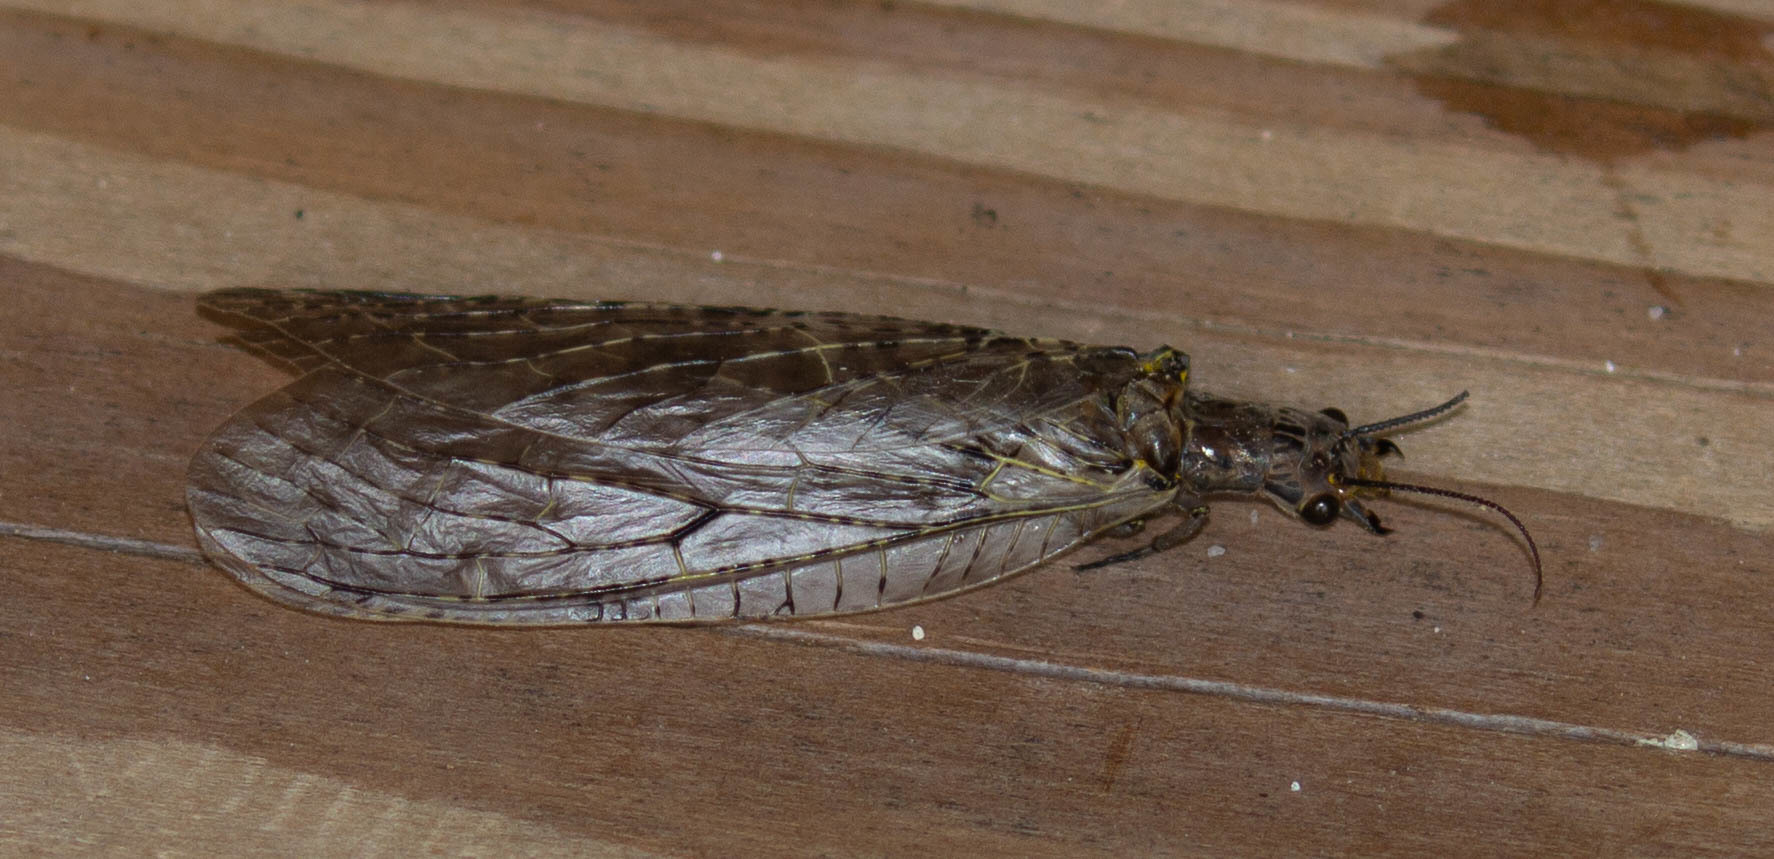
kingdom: Animalia
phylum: Arthropoda
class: Insecta
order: Megaloptera
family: Corydalidae
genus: Chauliodes
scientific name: Chauliodes rastricornis
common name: Spring fishfly
